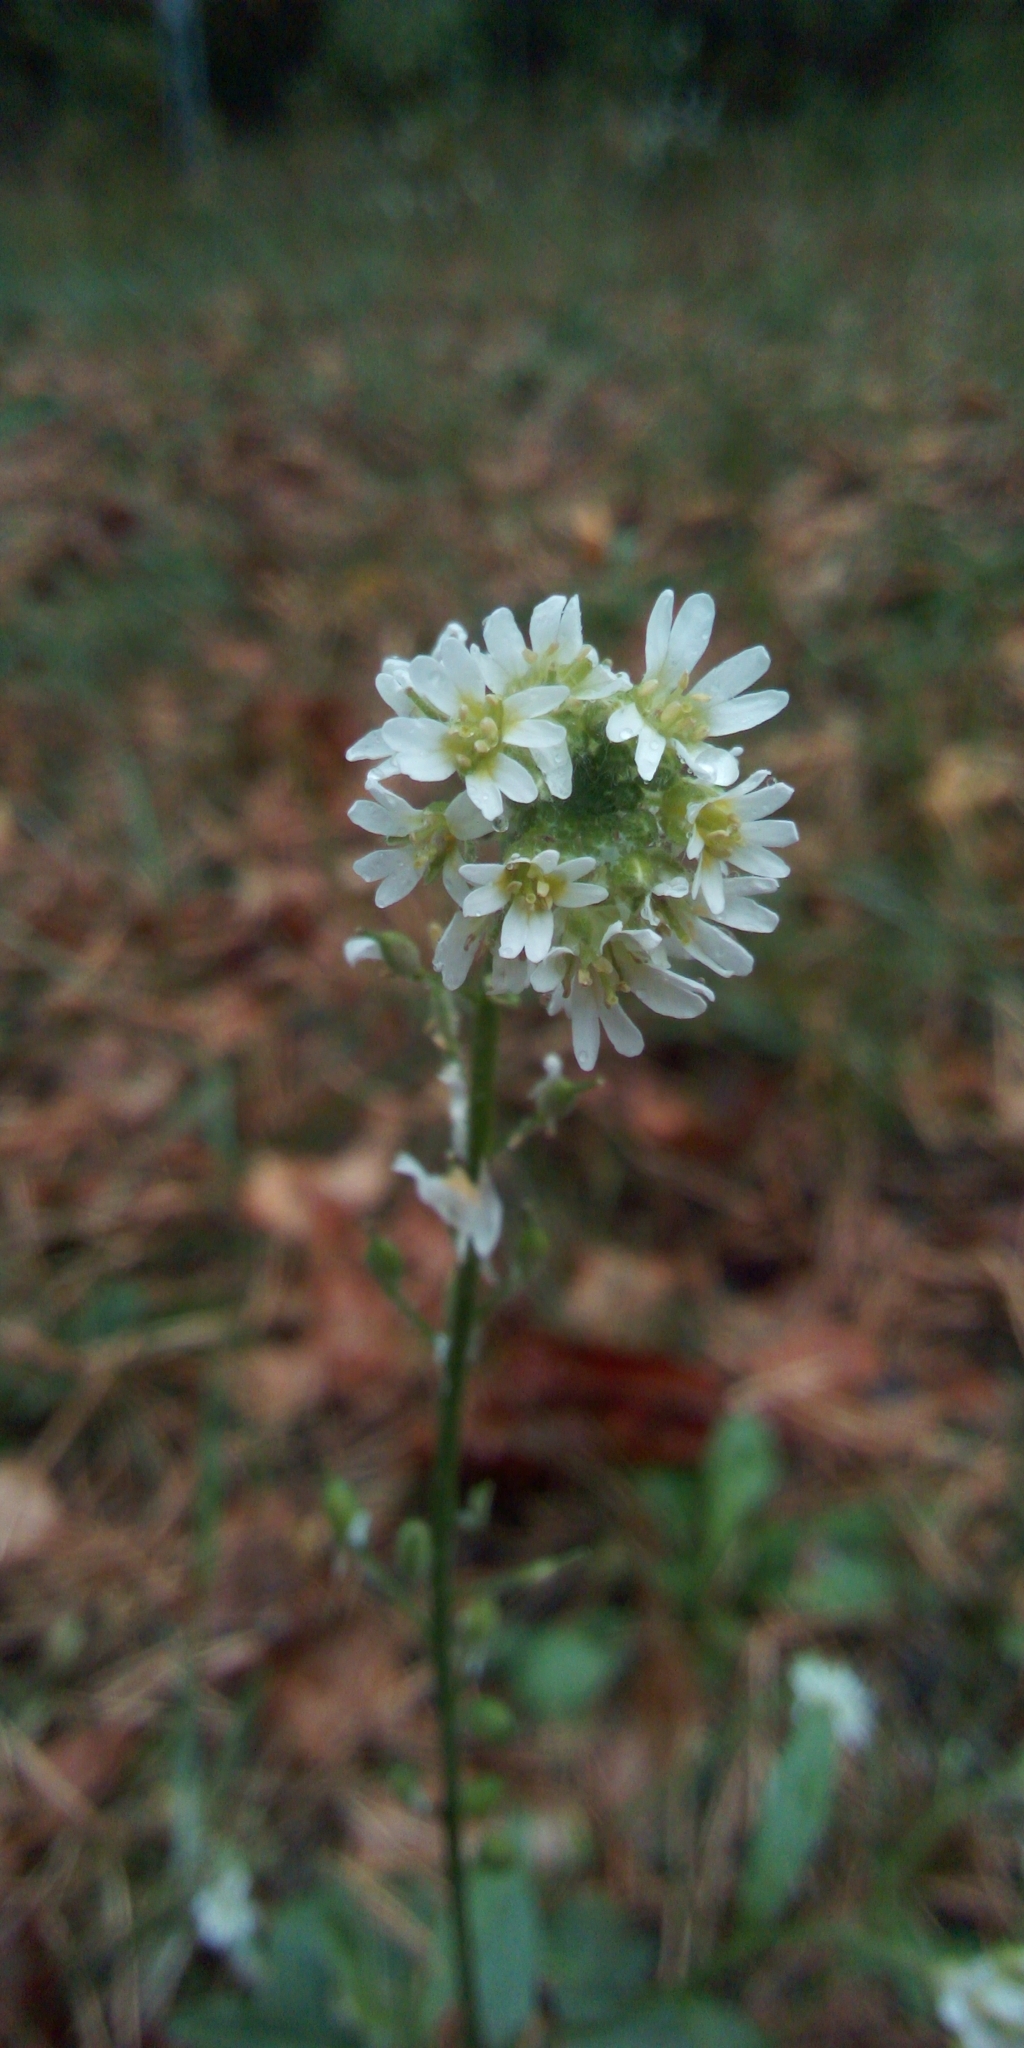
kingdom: Plantae
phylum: Tracheophyta
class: Magnoliopsida
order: Brassicales
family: Brassicaceae
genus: Berteroa
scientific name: Berteroa incana
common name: Hoary alison
